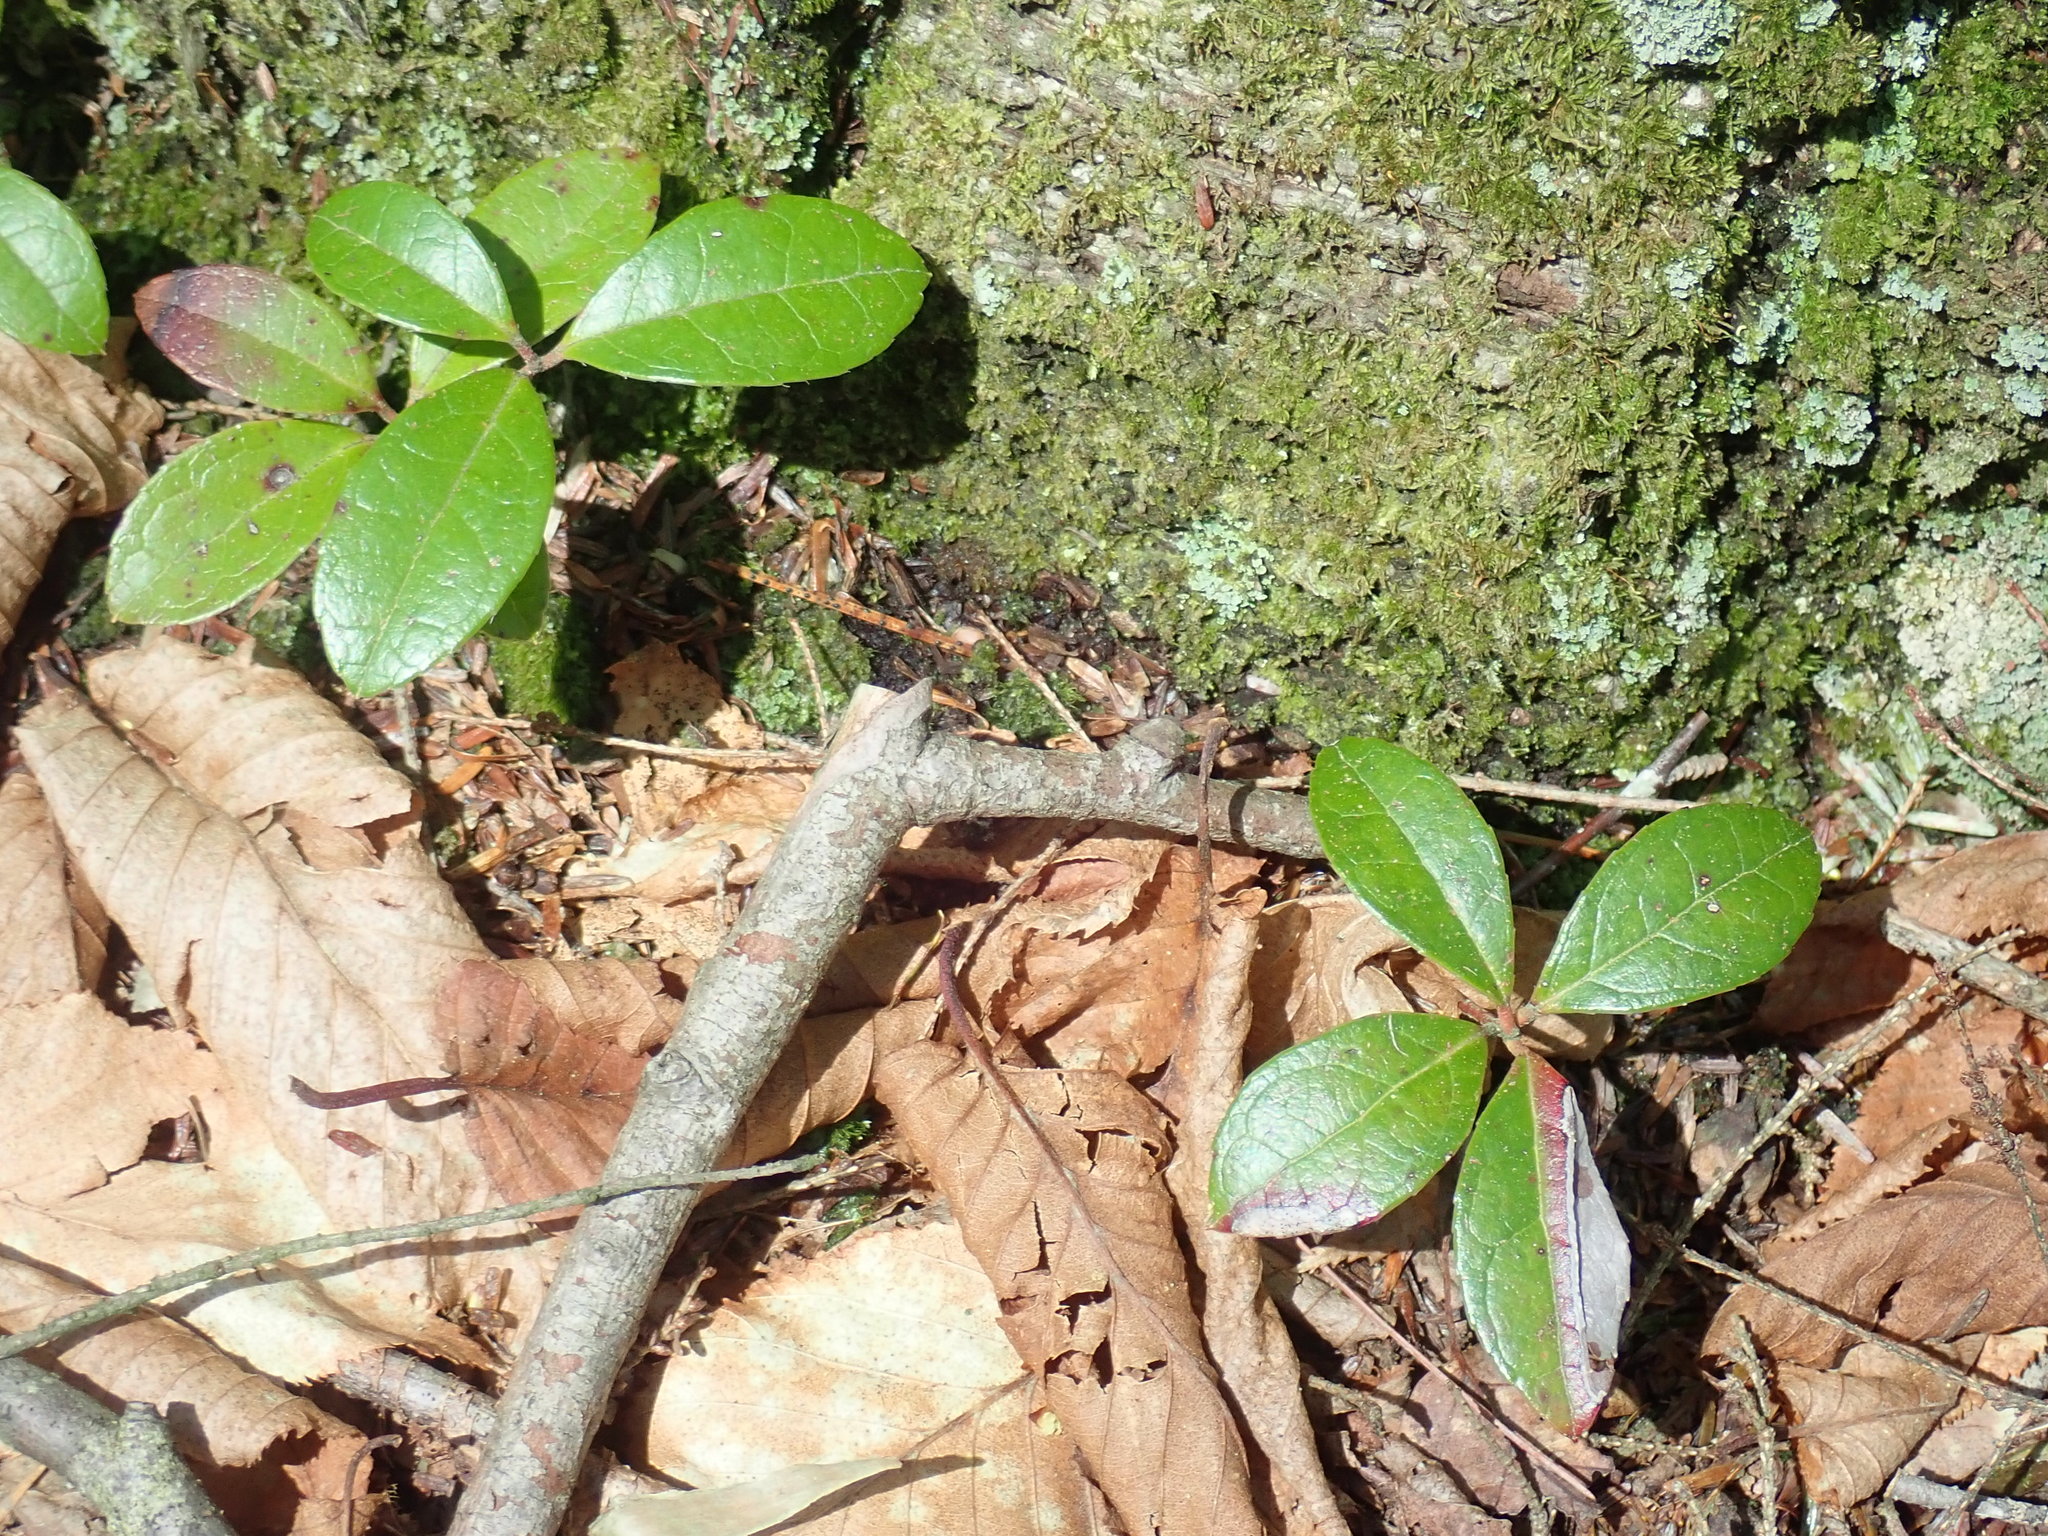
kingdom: Plantae
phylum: Tracheophyta
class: Magnoliopsida
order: Ericales
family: Ericaceae
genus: Gaultheria
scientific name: Gaultheria procumbens
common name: Checkerberry
